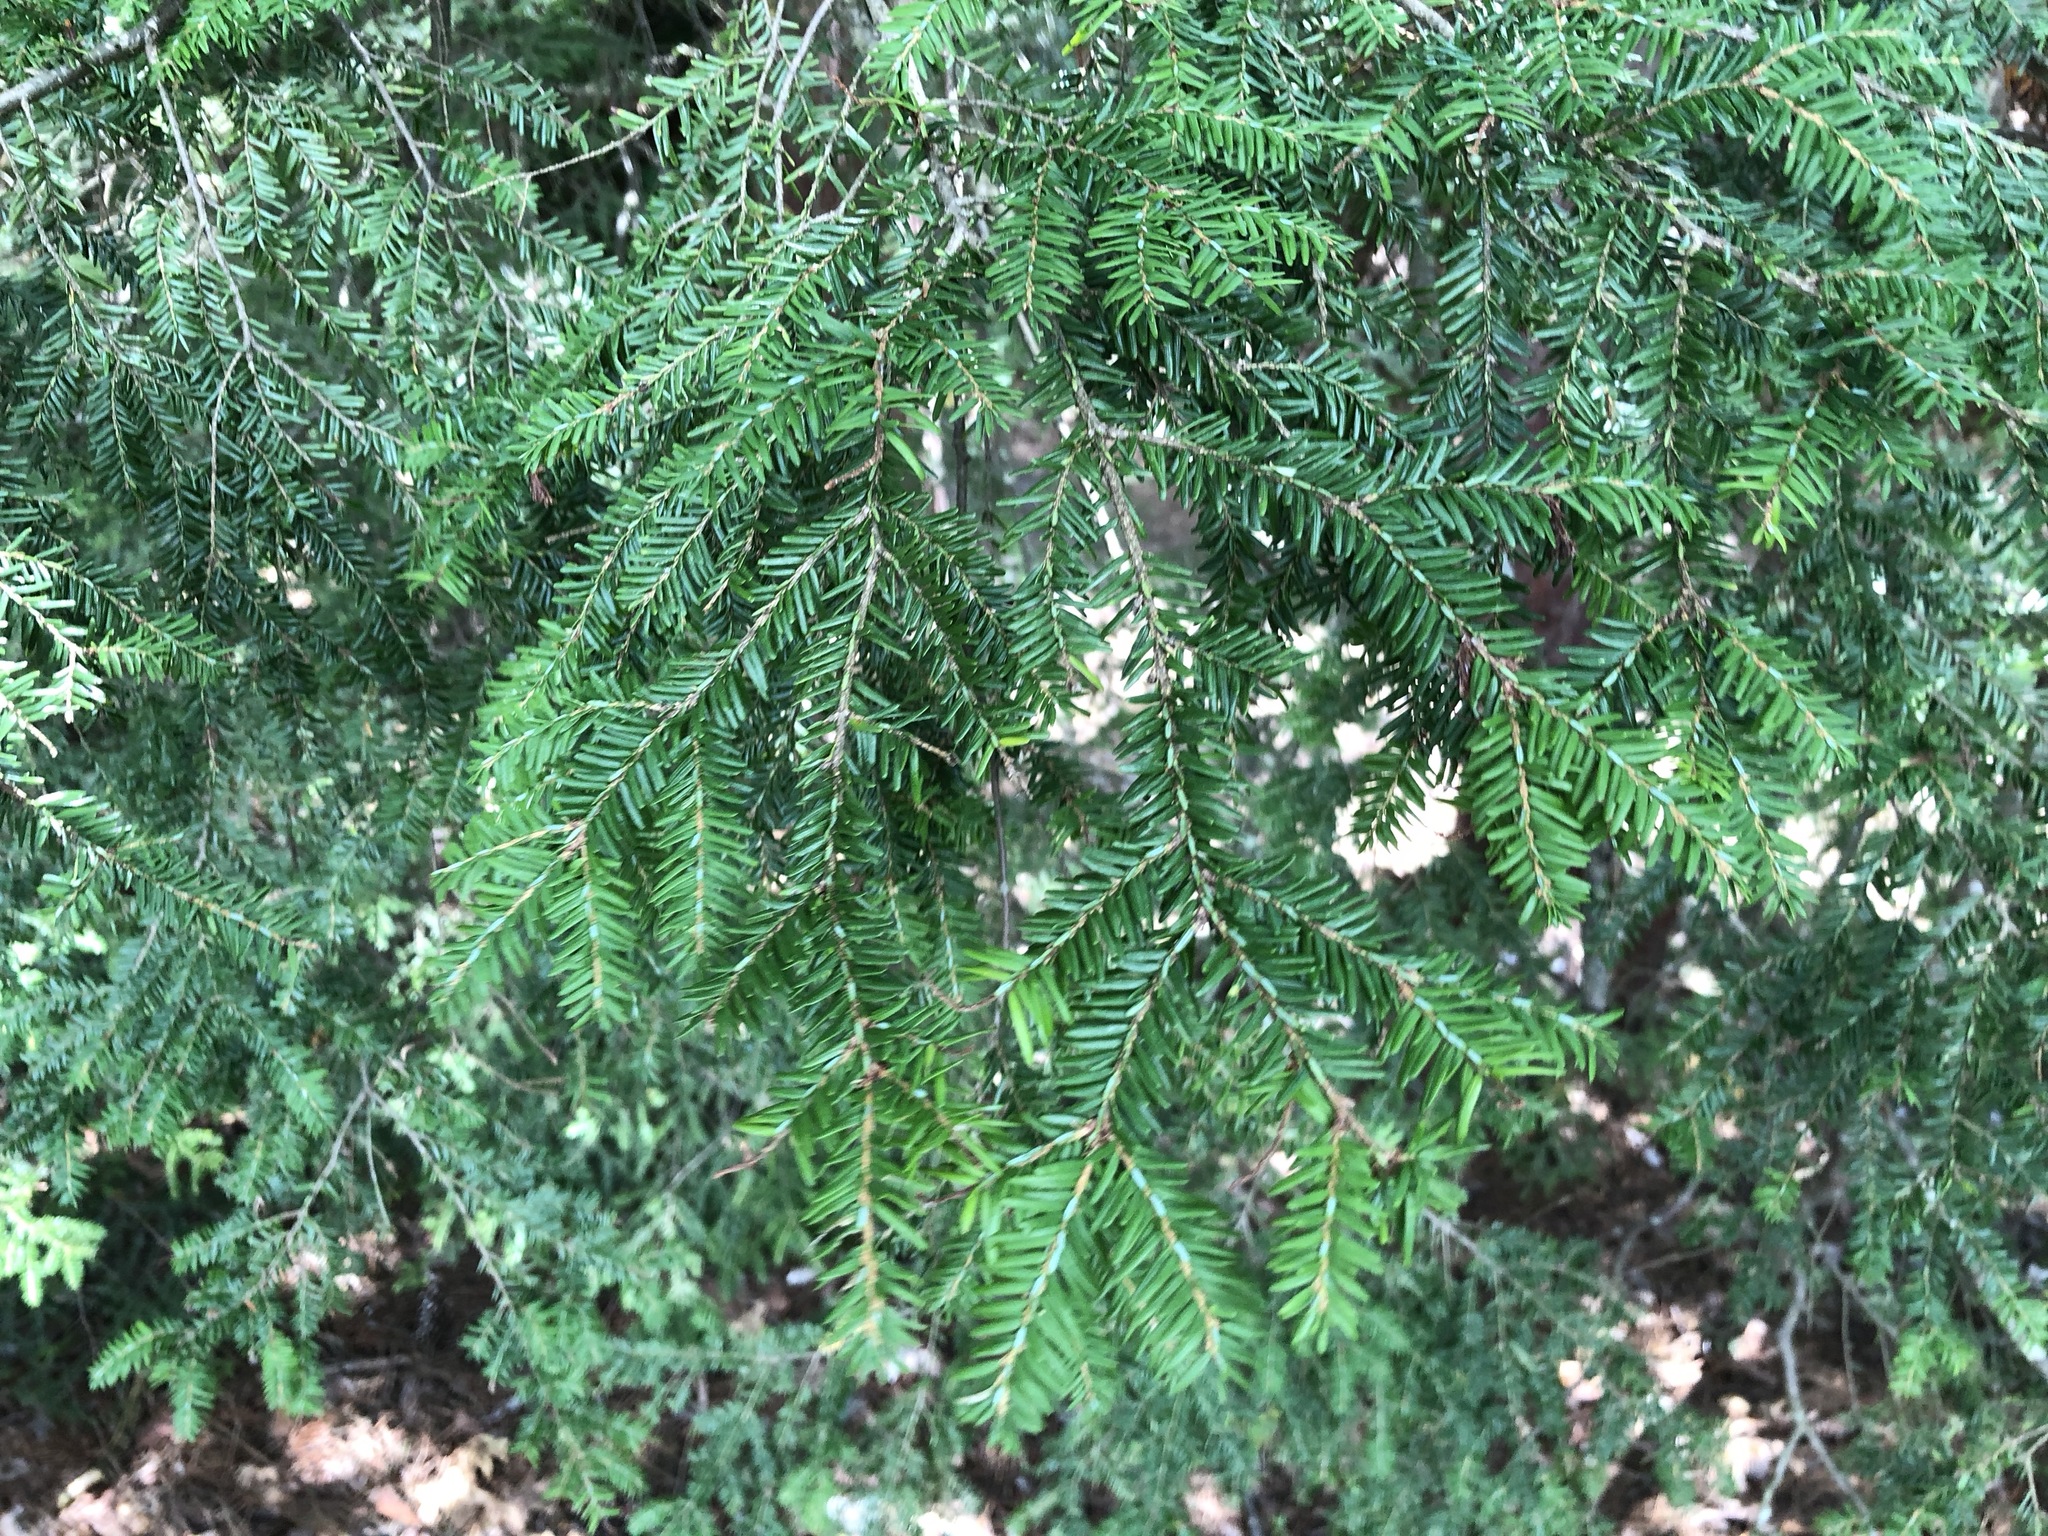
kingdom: Plantae
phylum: Tracheophyta
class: Pinopsida
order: Pinales
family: Pinaceae
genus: Tsuga
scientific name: Tsuga canadensis
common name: Eastern hemlock
